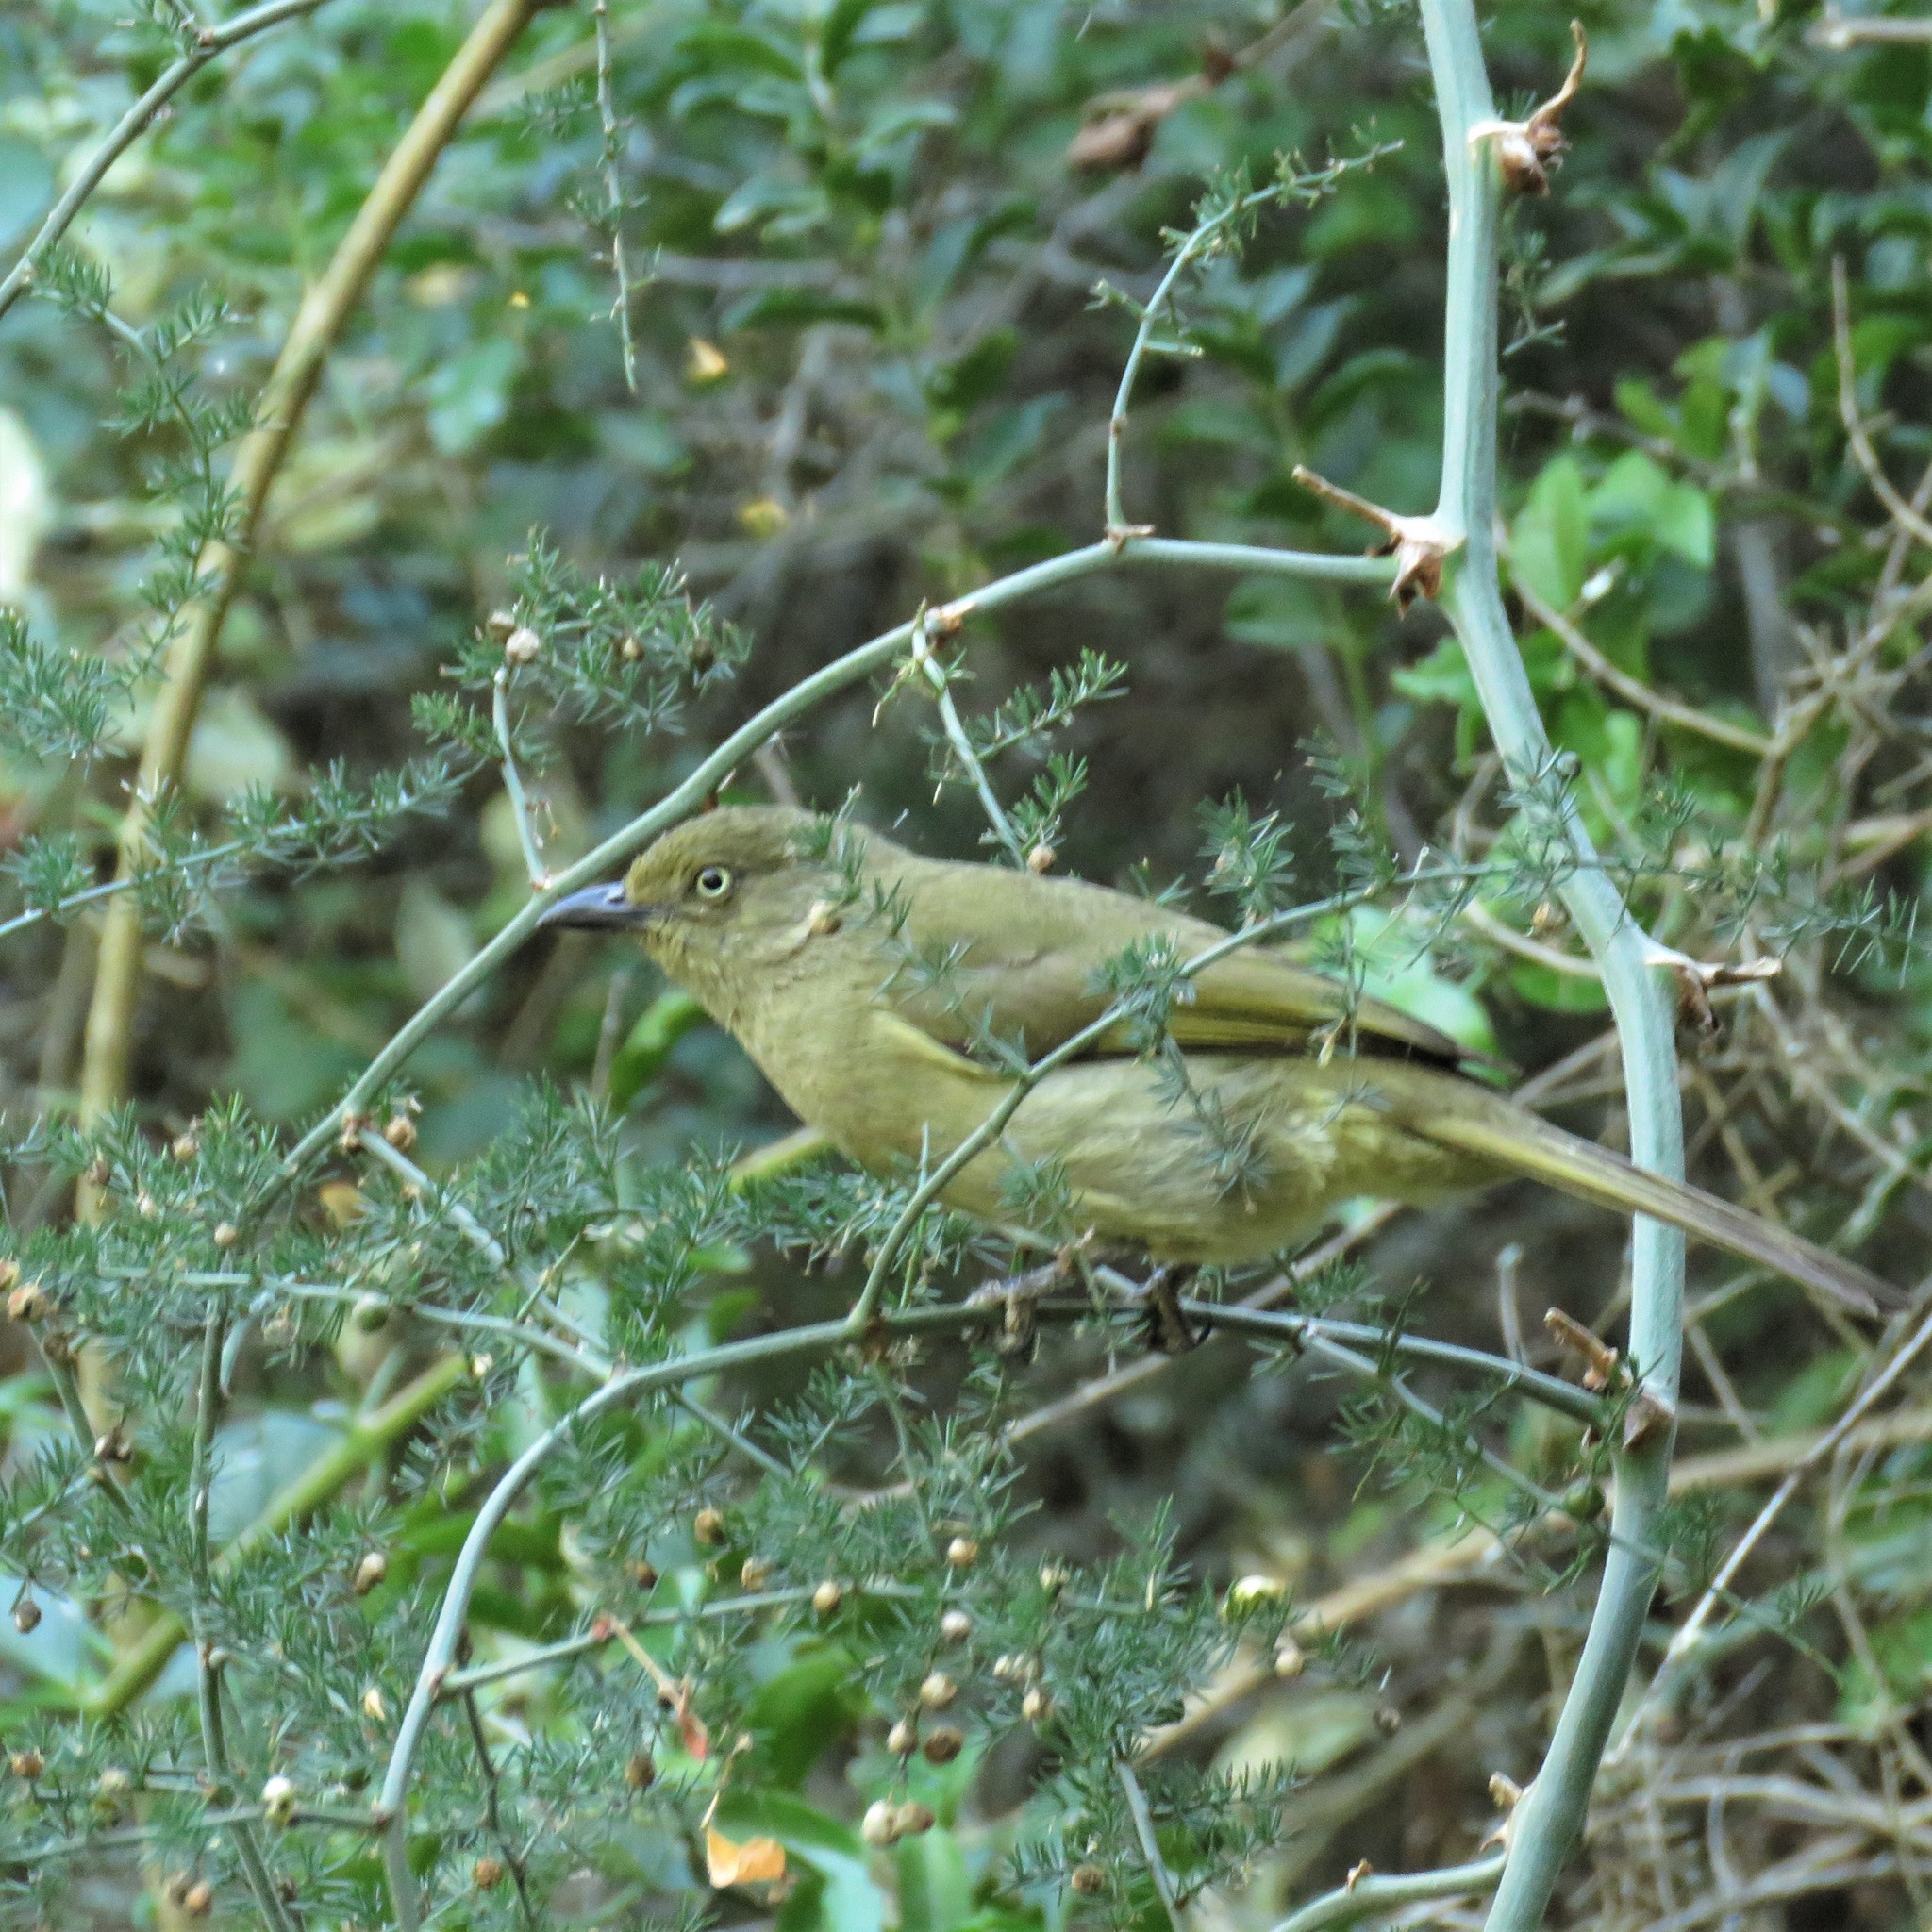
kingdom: Animalia
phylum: Chordata
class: Aves
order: Passeriformes
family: Pycnonotidae
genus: Andropadus
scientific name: Andropadus importunus
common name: Sombre greenbul
